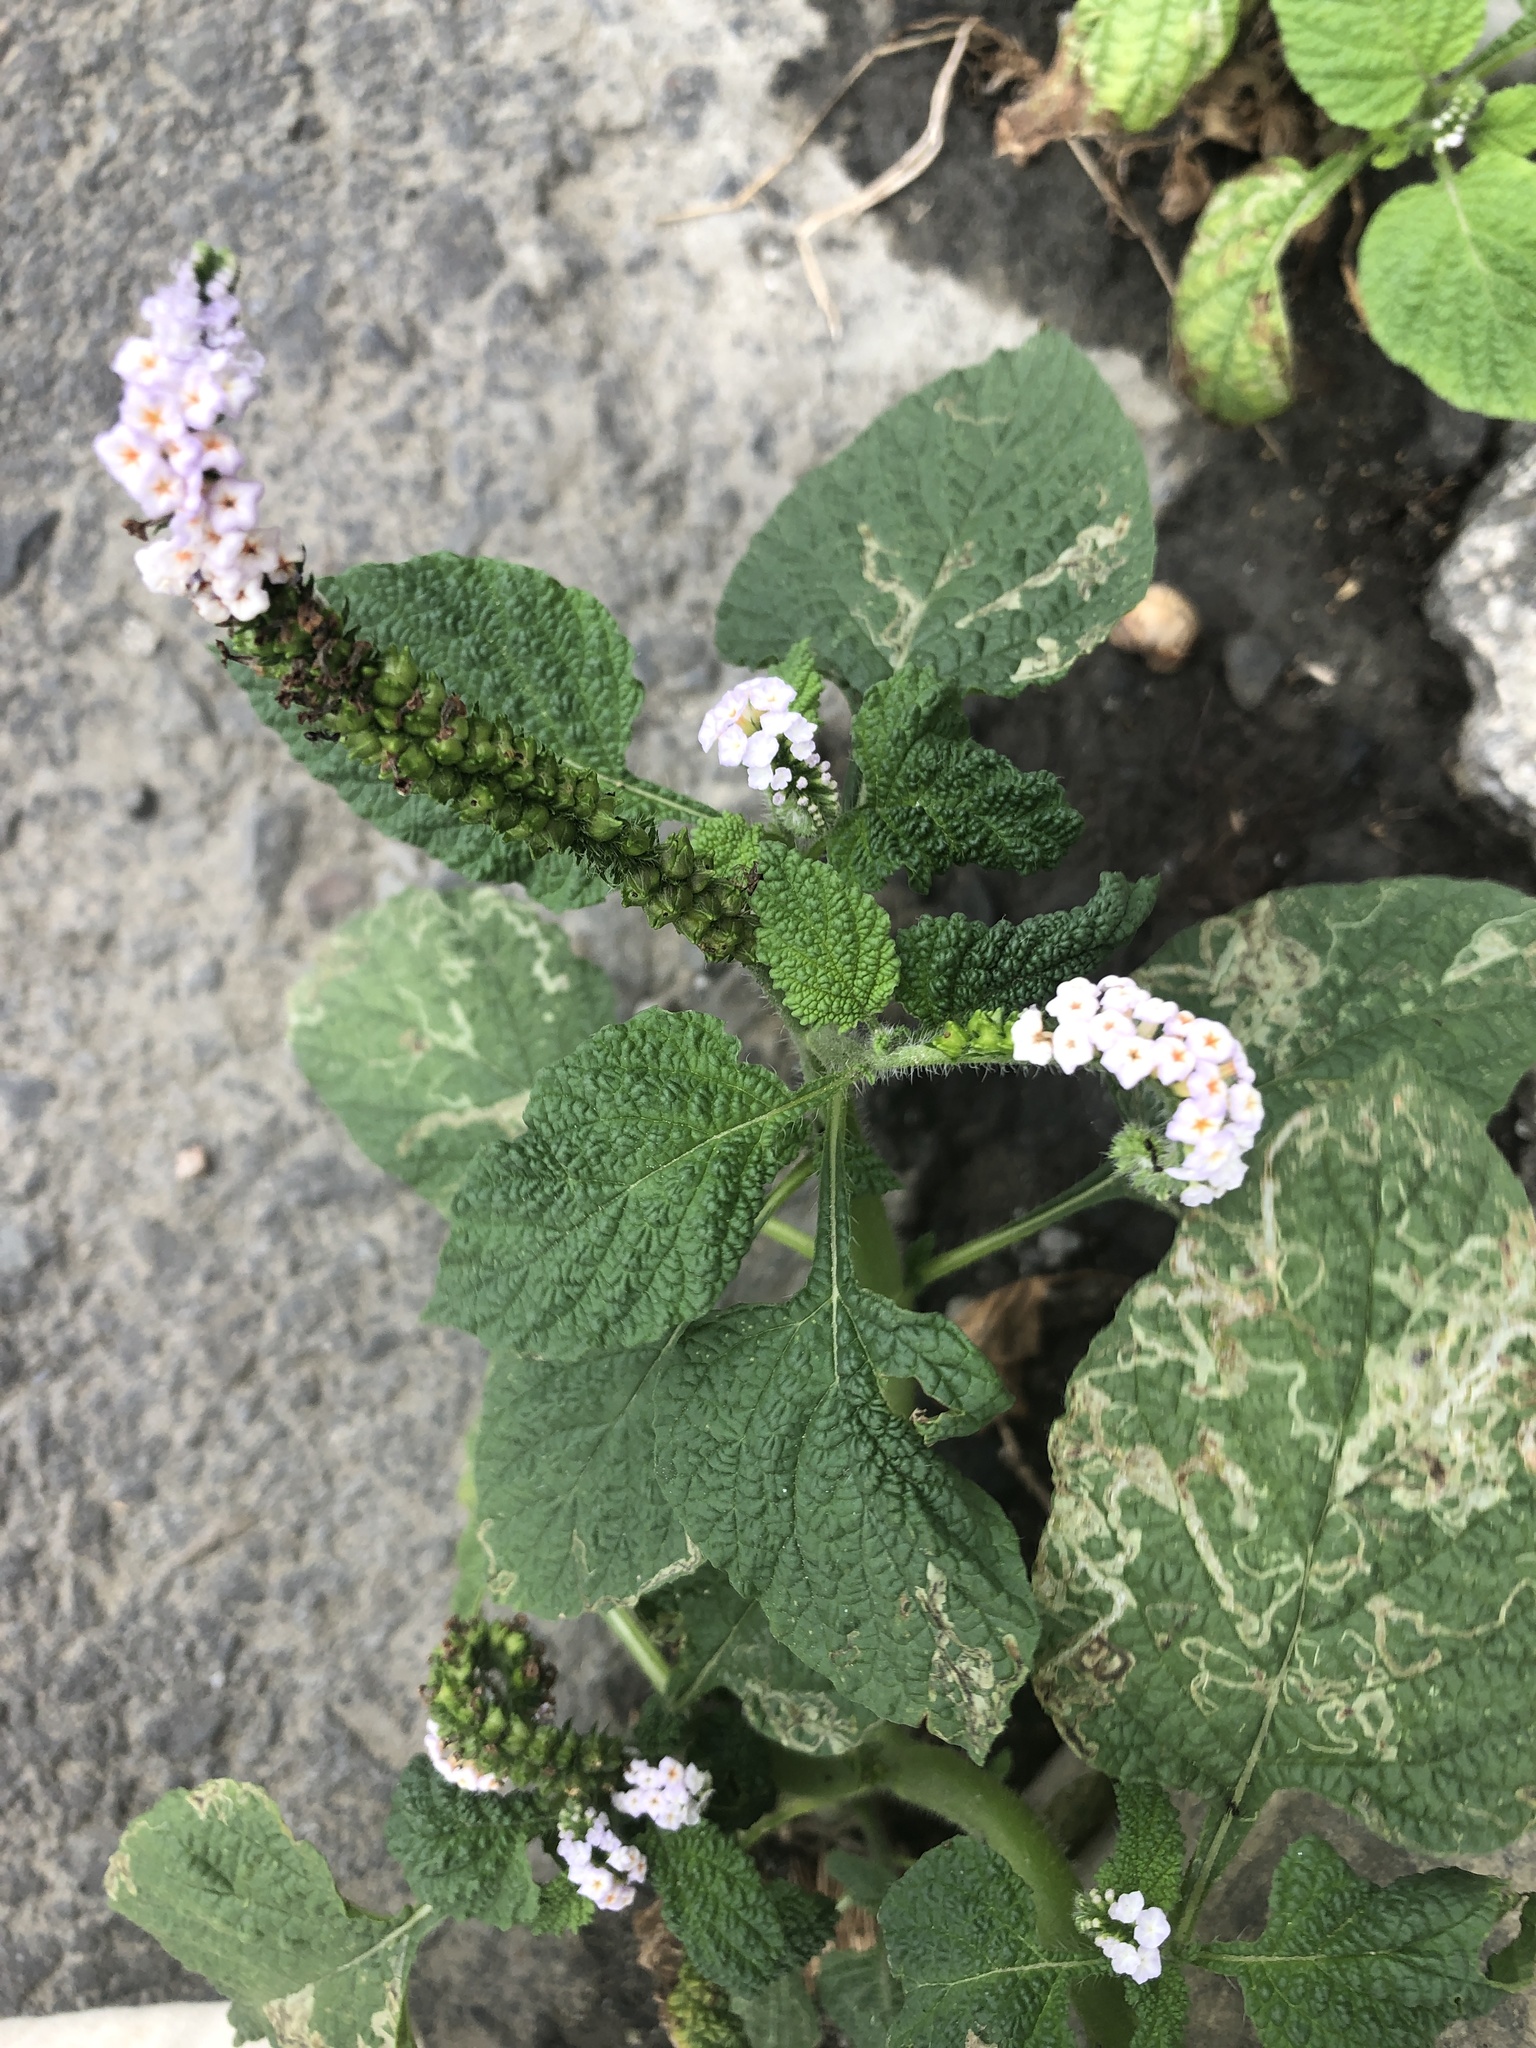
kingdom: Plantae
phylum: Tracheophyta
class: Magnoliopsida
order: Boraginales
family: Heliotropiaceae
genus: Heliotropium
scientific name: Heliotropium indicum
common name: Indian heliotrope
